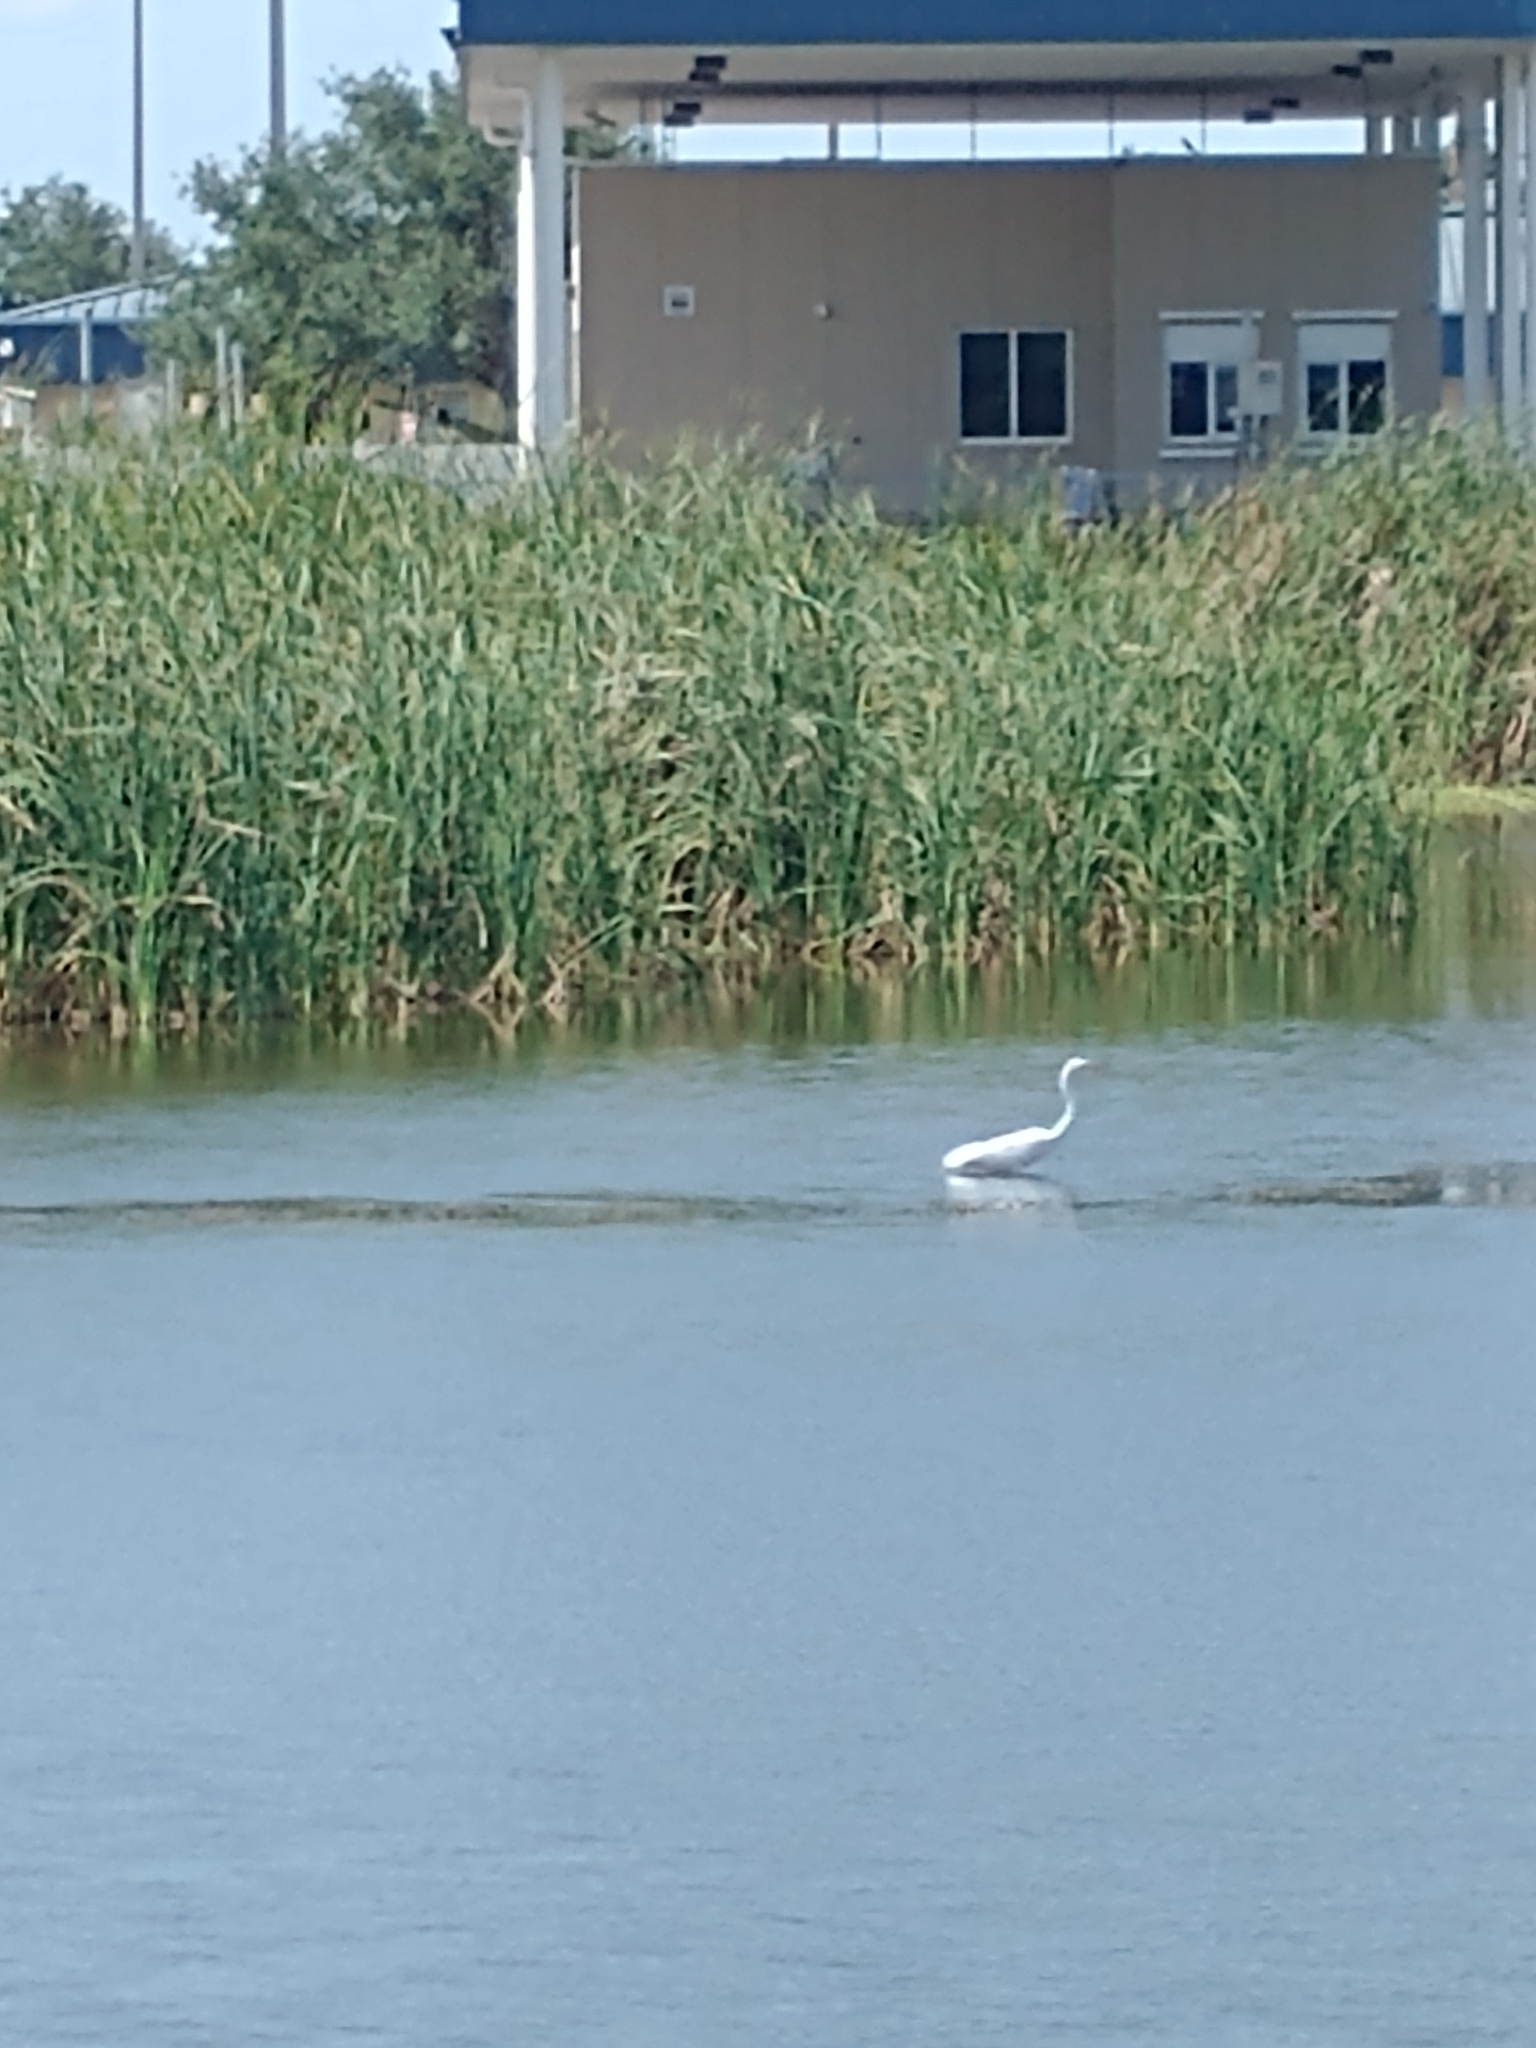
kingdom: Animalia
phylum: Chordata
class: Aves
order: Pelecaniformes
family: Ardeidae
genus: Ardea
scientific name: Ardea alba
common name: Great egret
